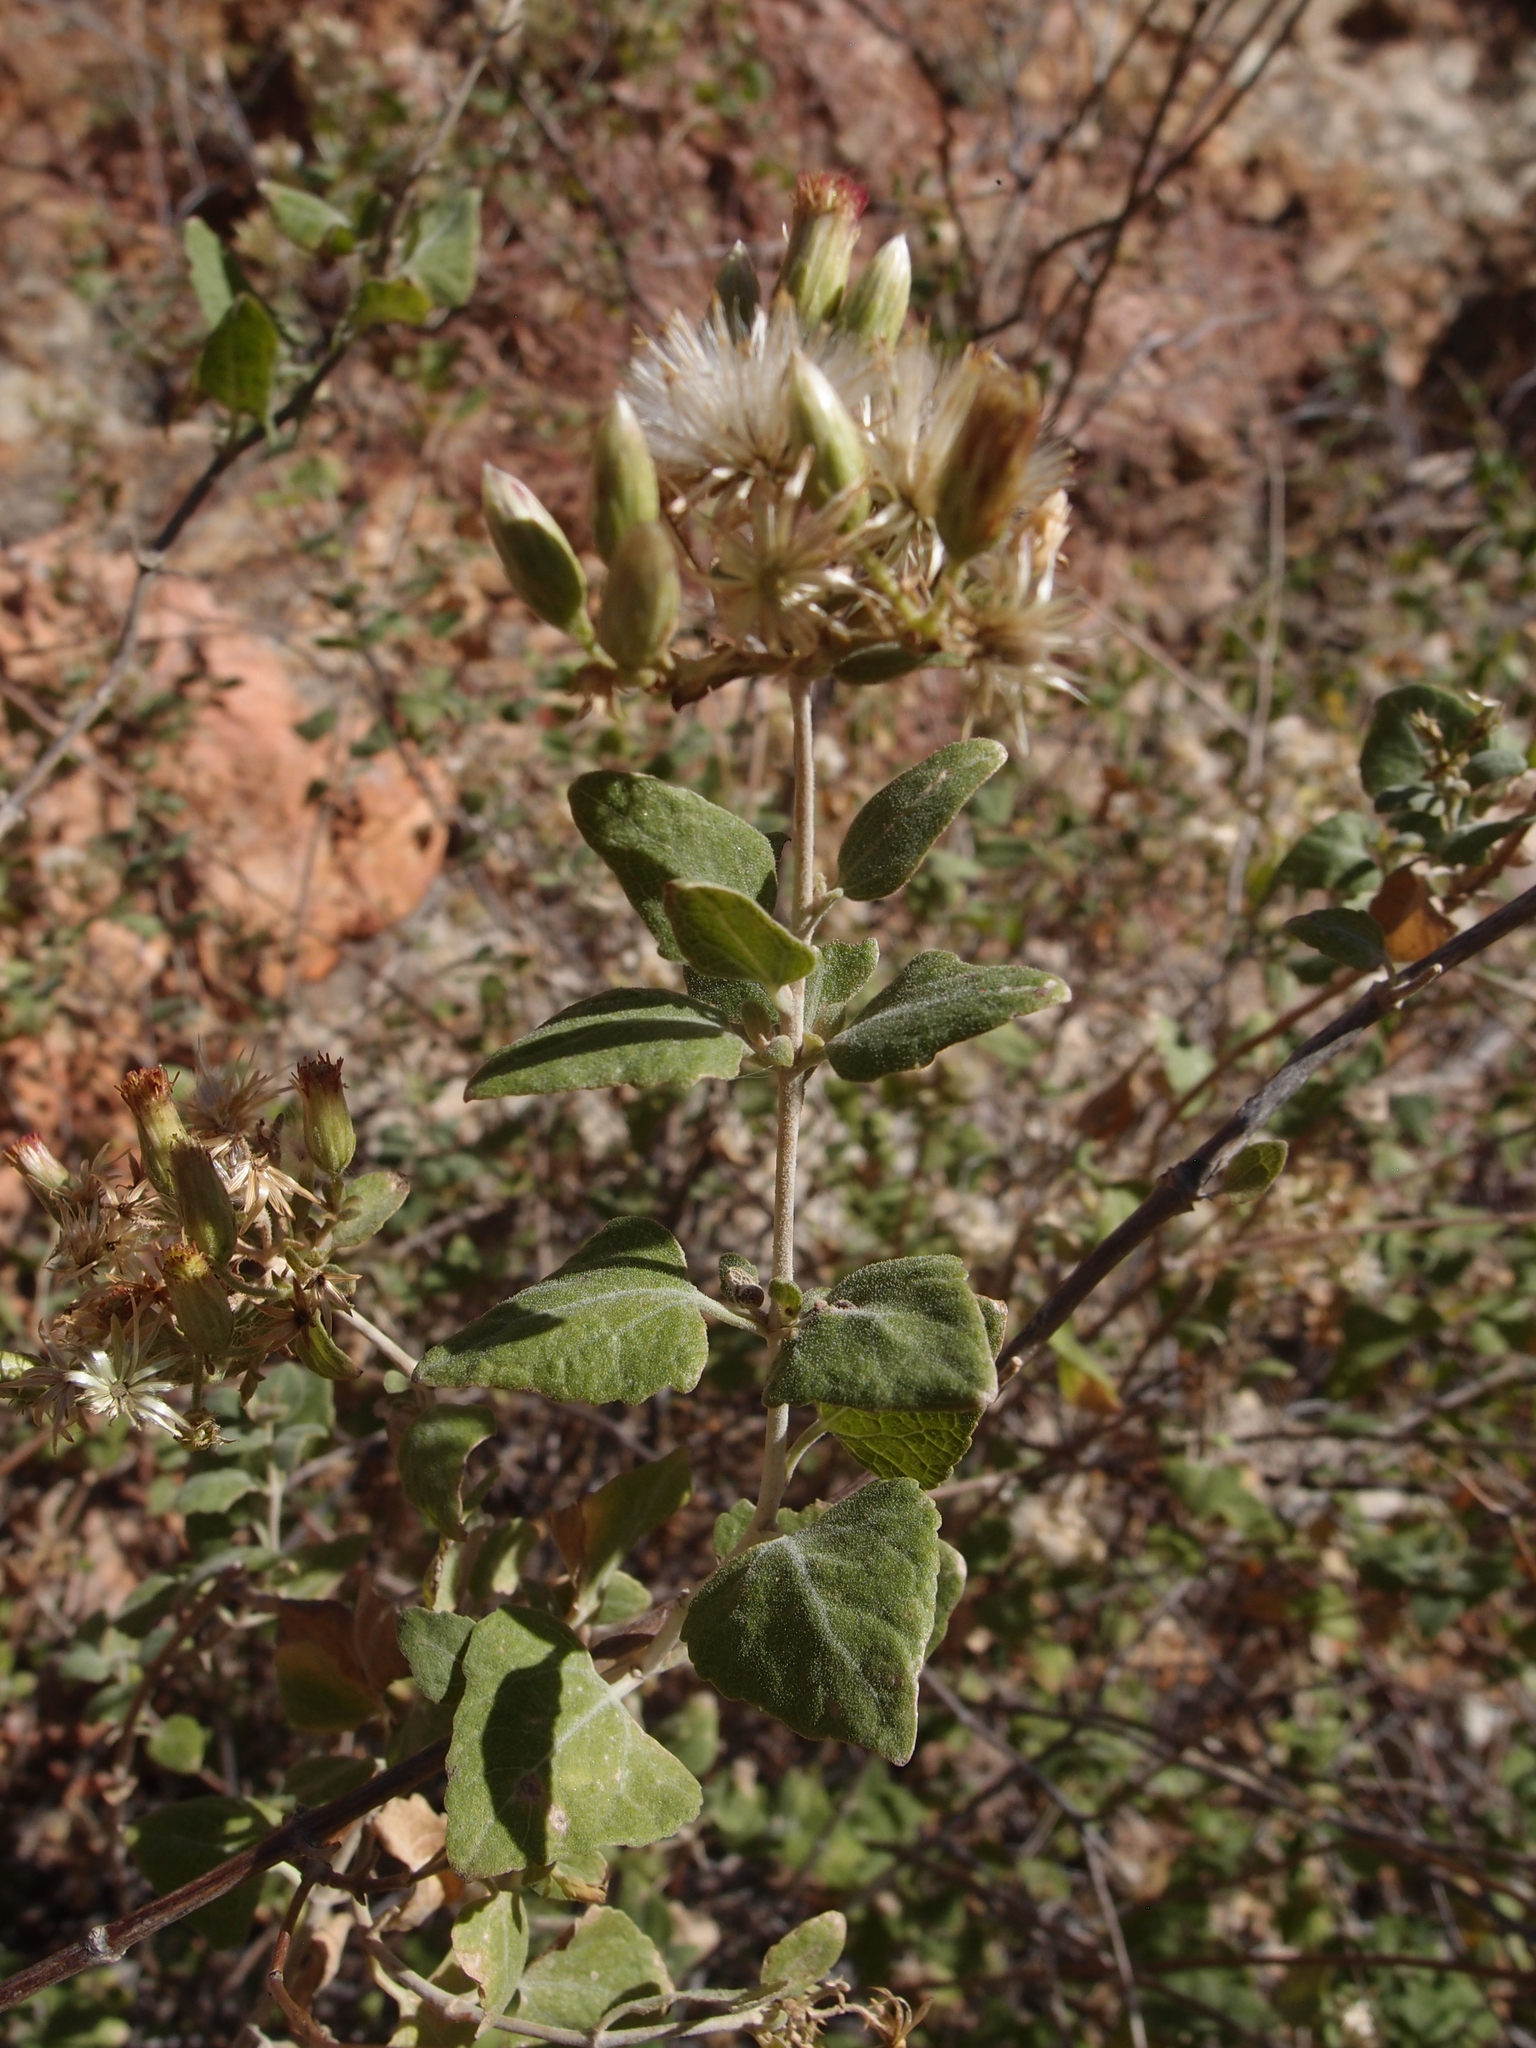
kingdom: Plantae
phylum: Tracheophyta
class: Magnoliopsida
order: Asterales
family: Asteraceae
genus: Brickellia
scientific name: Brickellia rhomboidea
